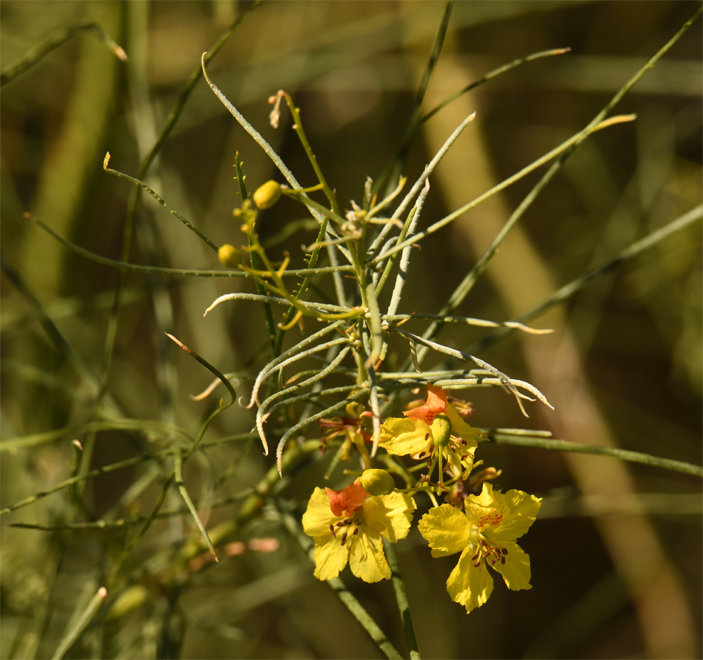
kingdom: Plantae
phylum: Tracheophyta
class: Magnoliopsida
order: Fabales
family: Fabaceae
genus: Parkinsonia
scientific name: Parkinsonia aculeata
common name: Jerusalem thorn
